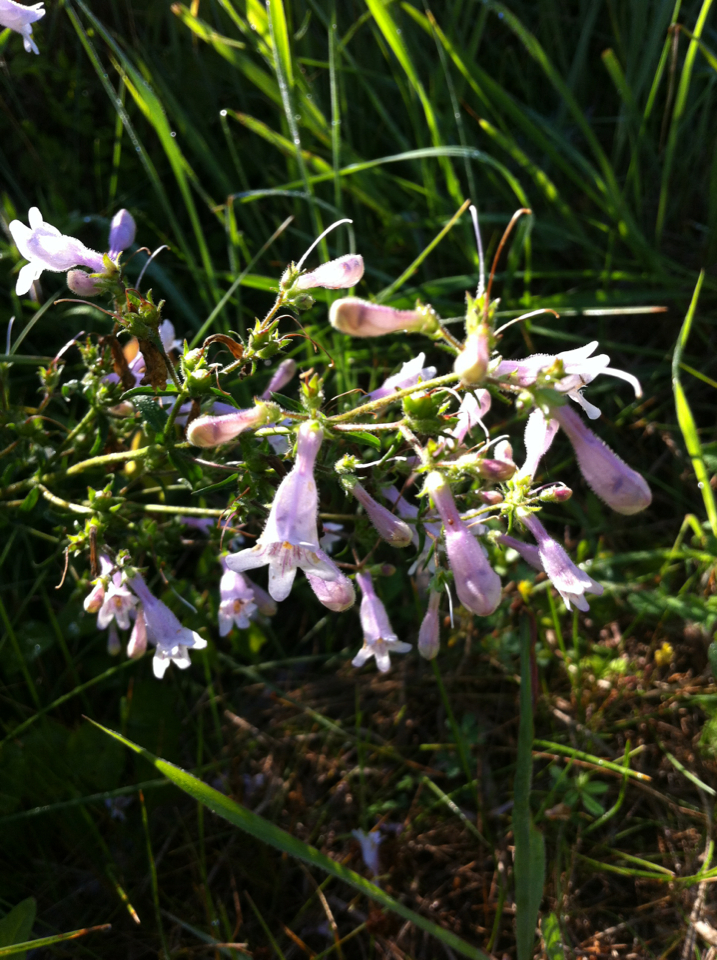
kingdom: Plantae
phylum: Tracheophyta
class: Magnoliopsida
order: Lamiales
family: Plantaginaceae
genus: Penstemon
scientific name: Penstemon laevigatus
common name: Eastern beardtongue
